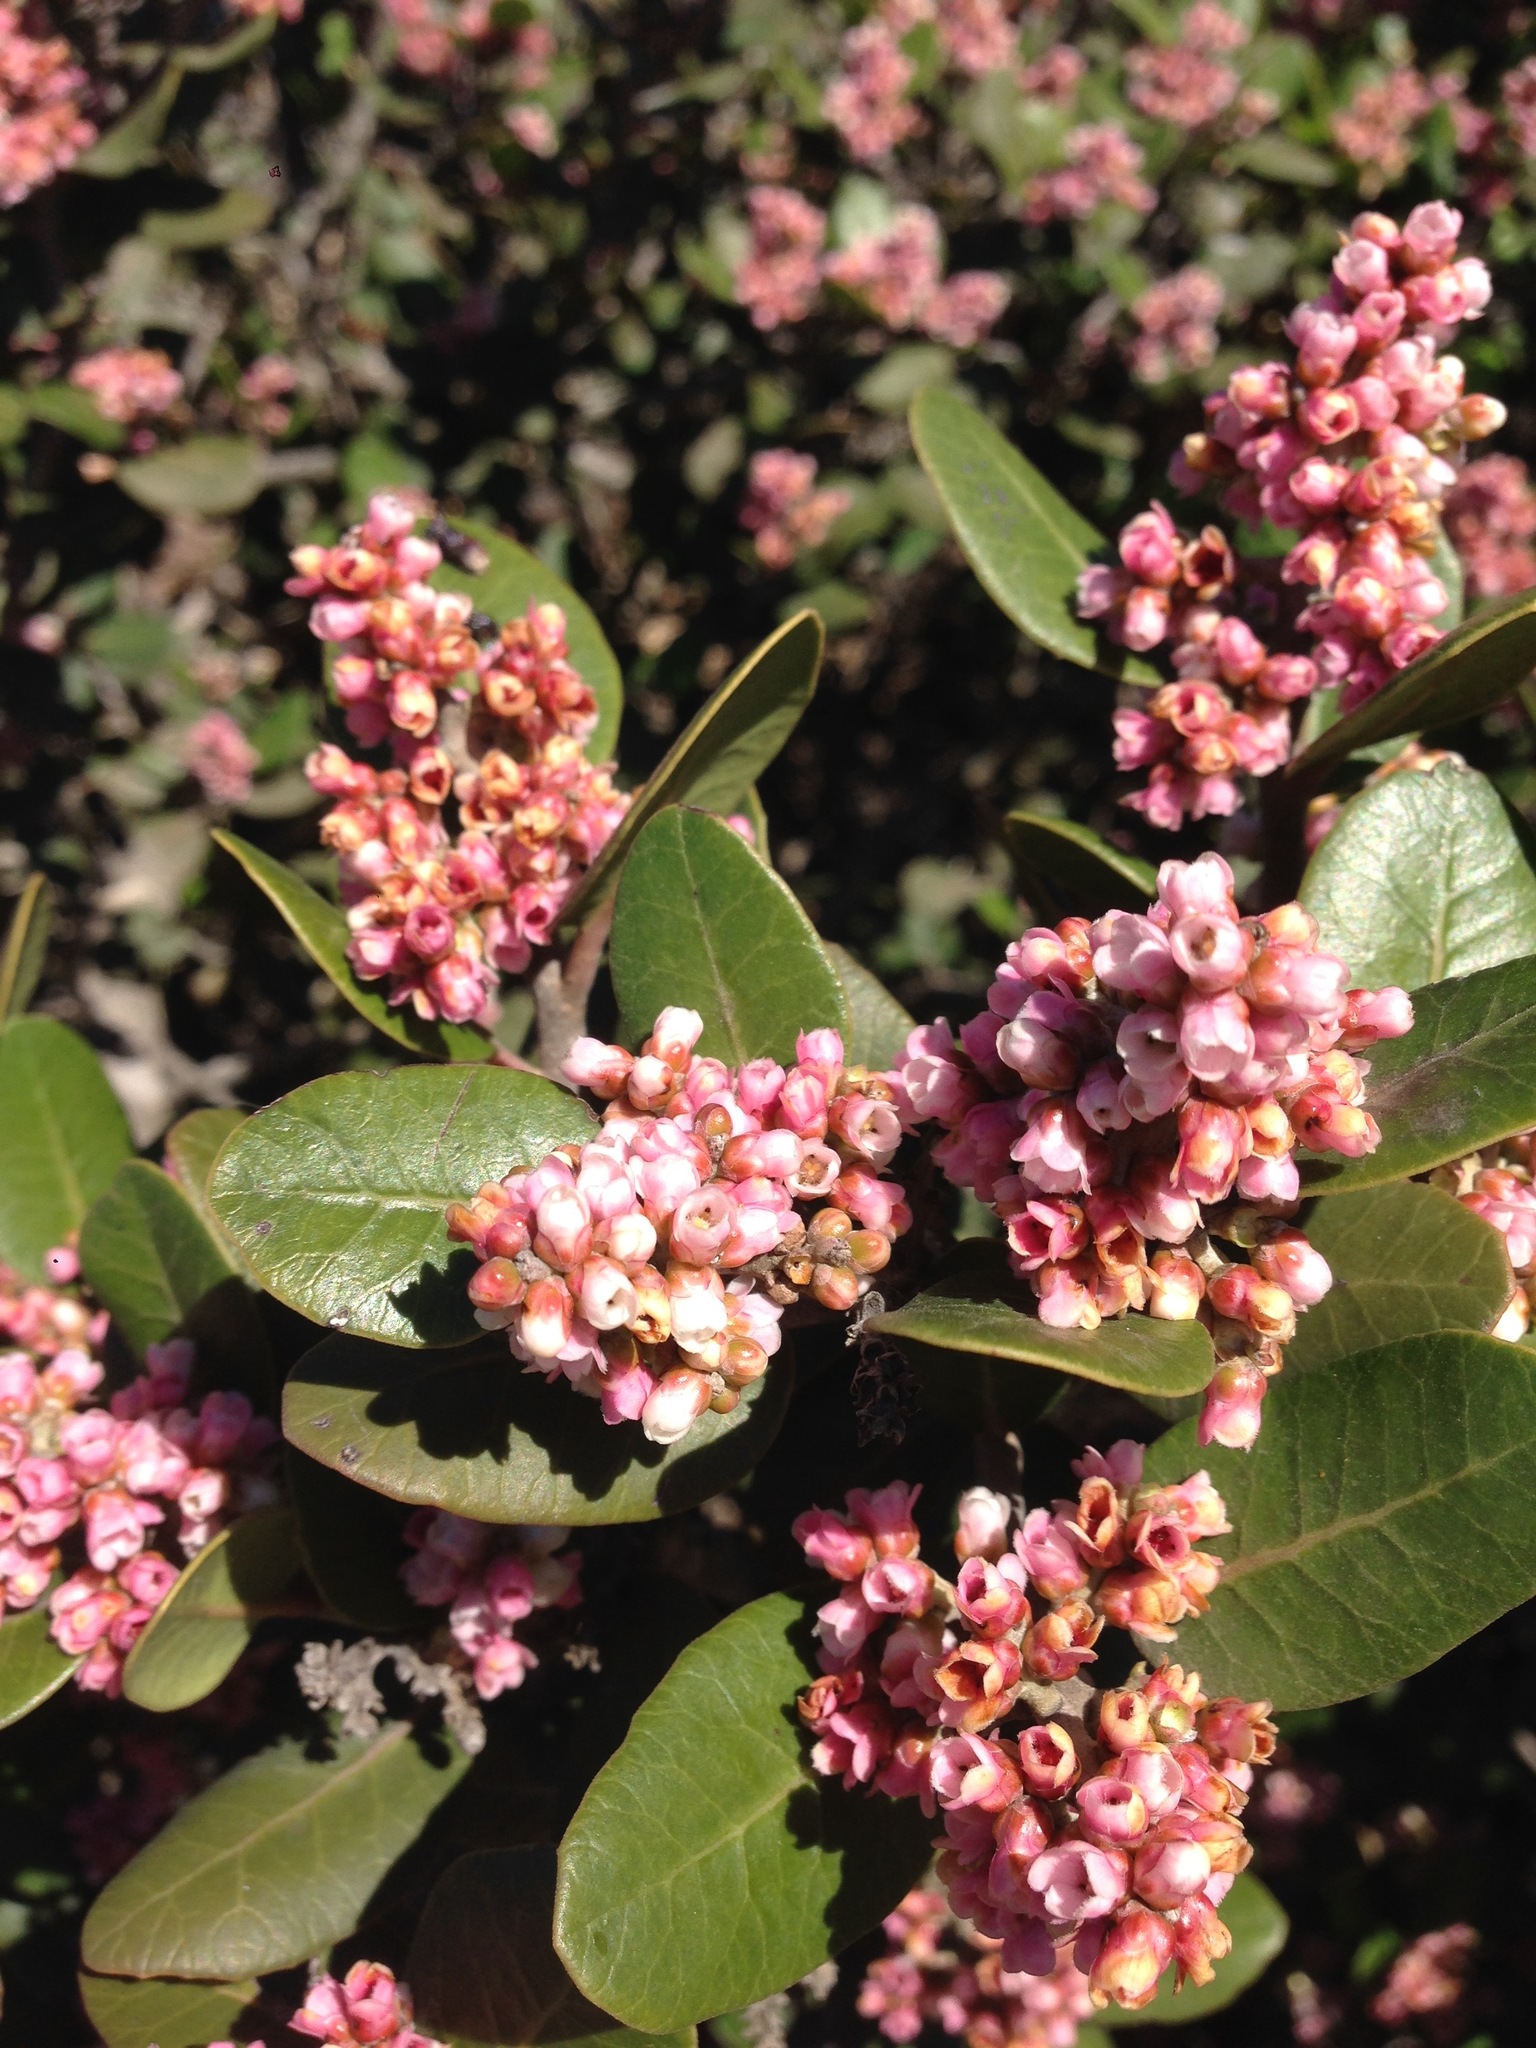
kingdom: Plantae
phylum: Tracheophyta
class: Magnoliopsida
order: Sapindales
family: Anacardiaceae
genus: Rhus
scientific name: Rhus integrifolia
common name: Lemonade sumac
